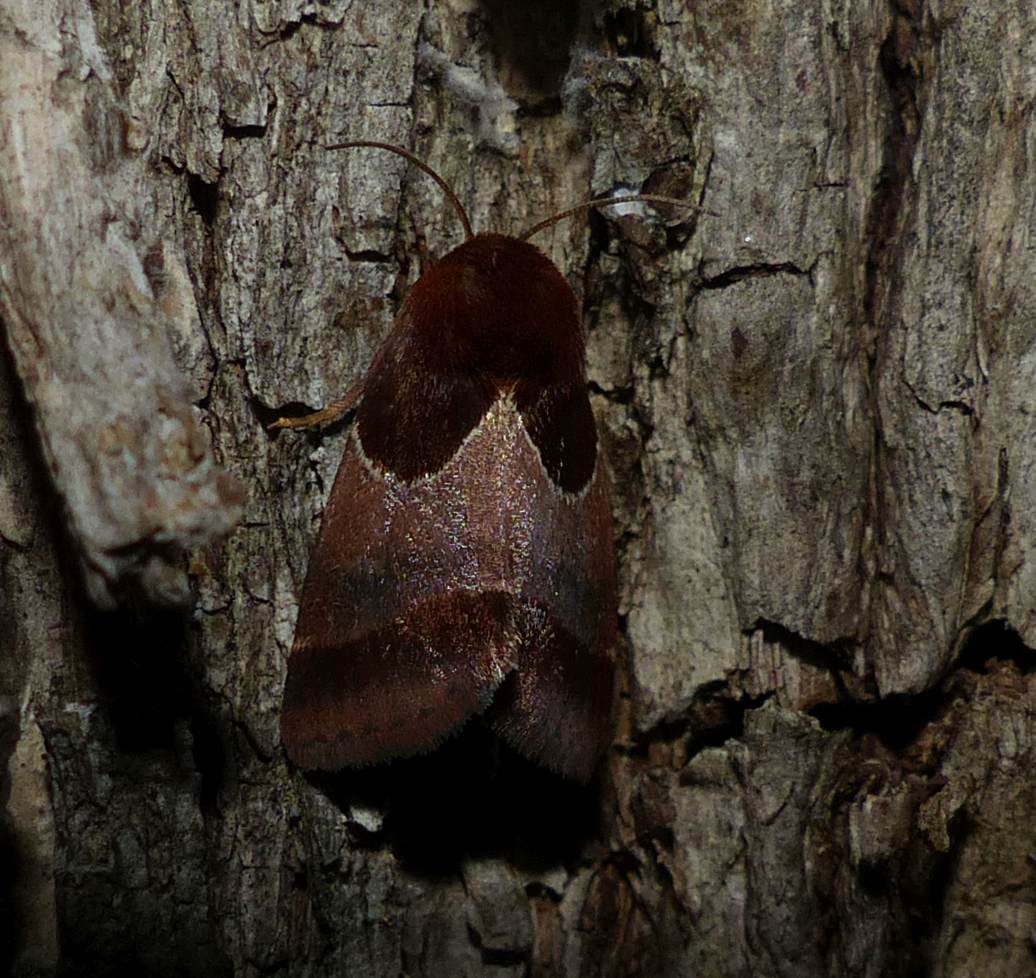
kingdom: Animalia
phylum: Arthropoda
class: Insecta
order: Lepidoptera
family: Noctuidae
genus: Schinia
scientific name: Schinia arcigera
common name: Arcigera flower moth
